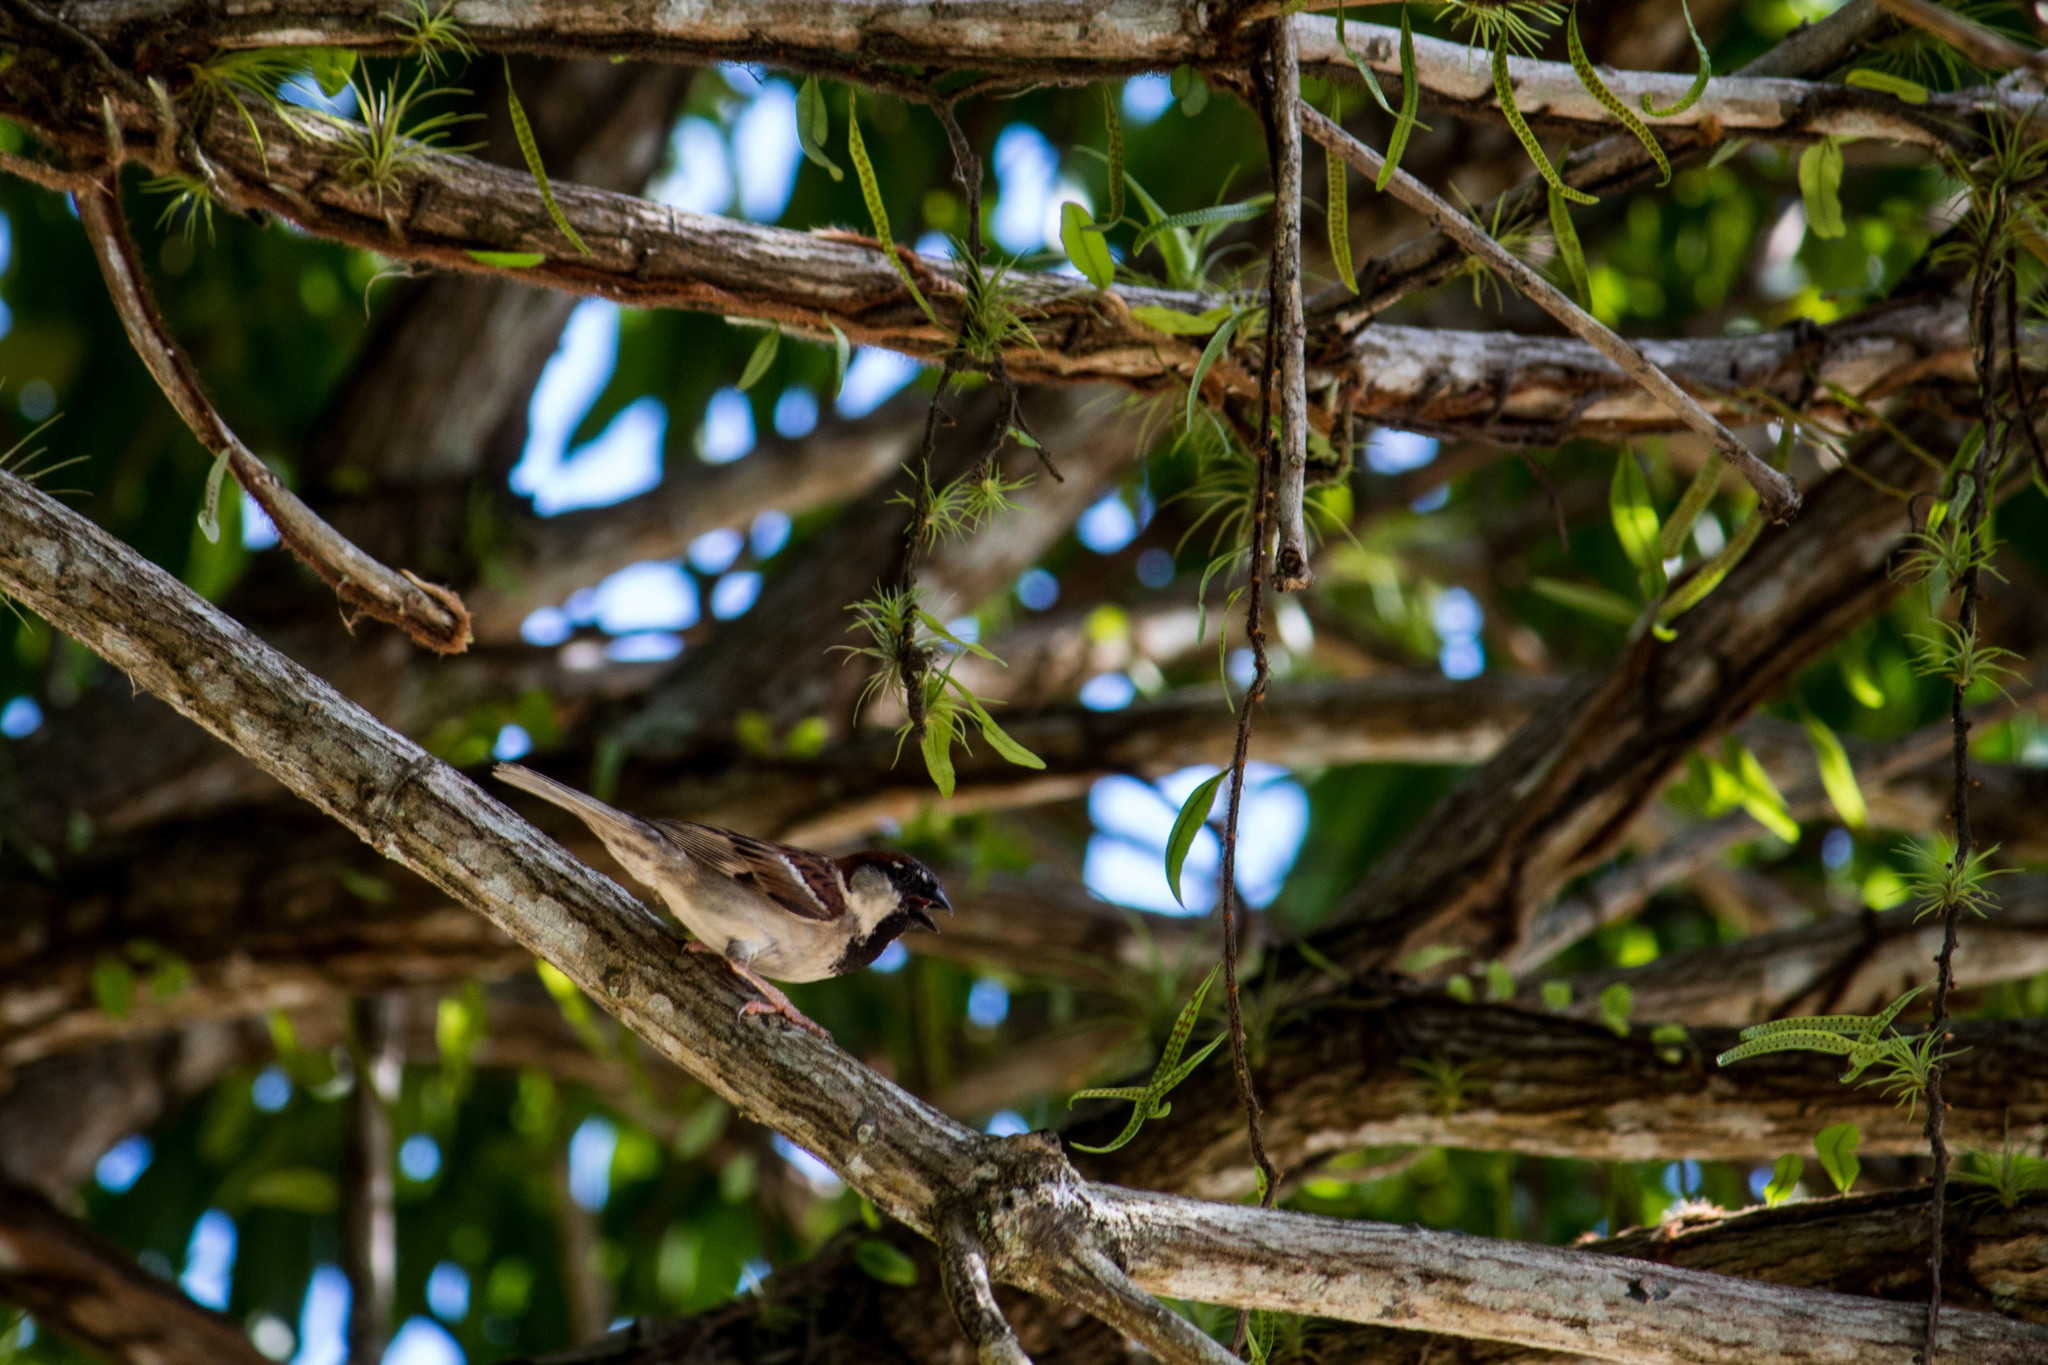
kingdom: Animalia
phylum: Chordata
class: Aves
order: Passeriformes
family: Passeridae
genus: Passer
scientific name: Passer domesticus
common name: House sparrow
